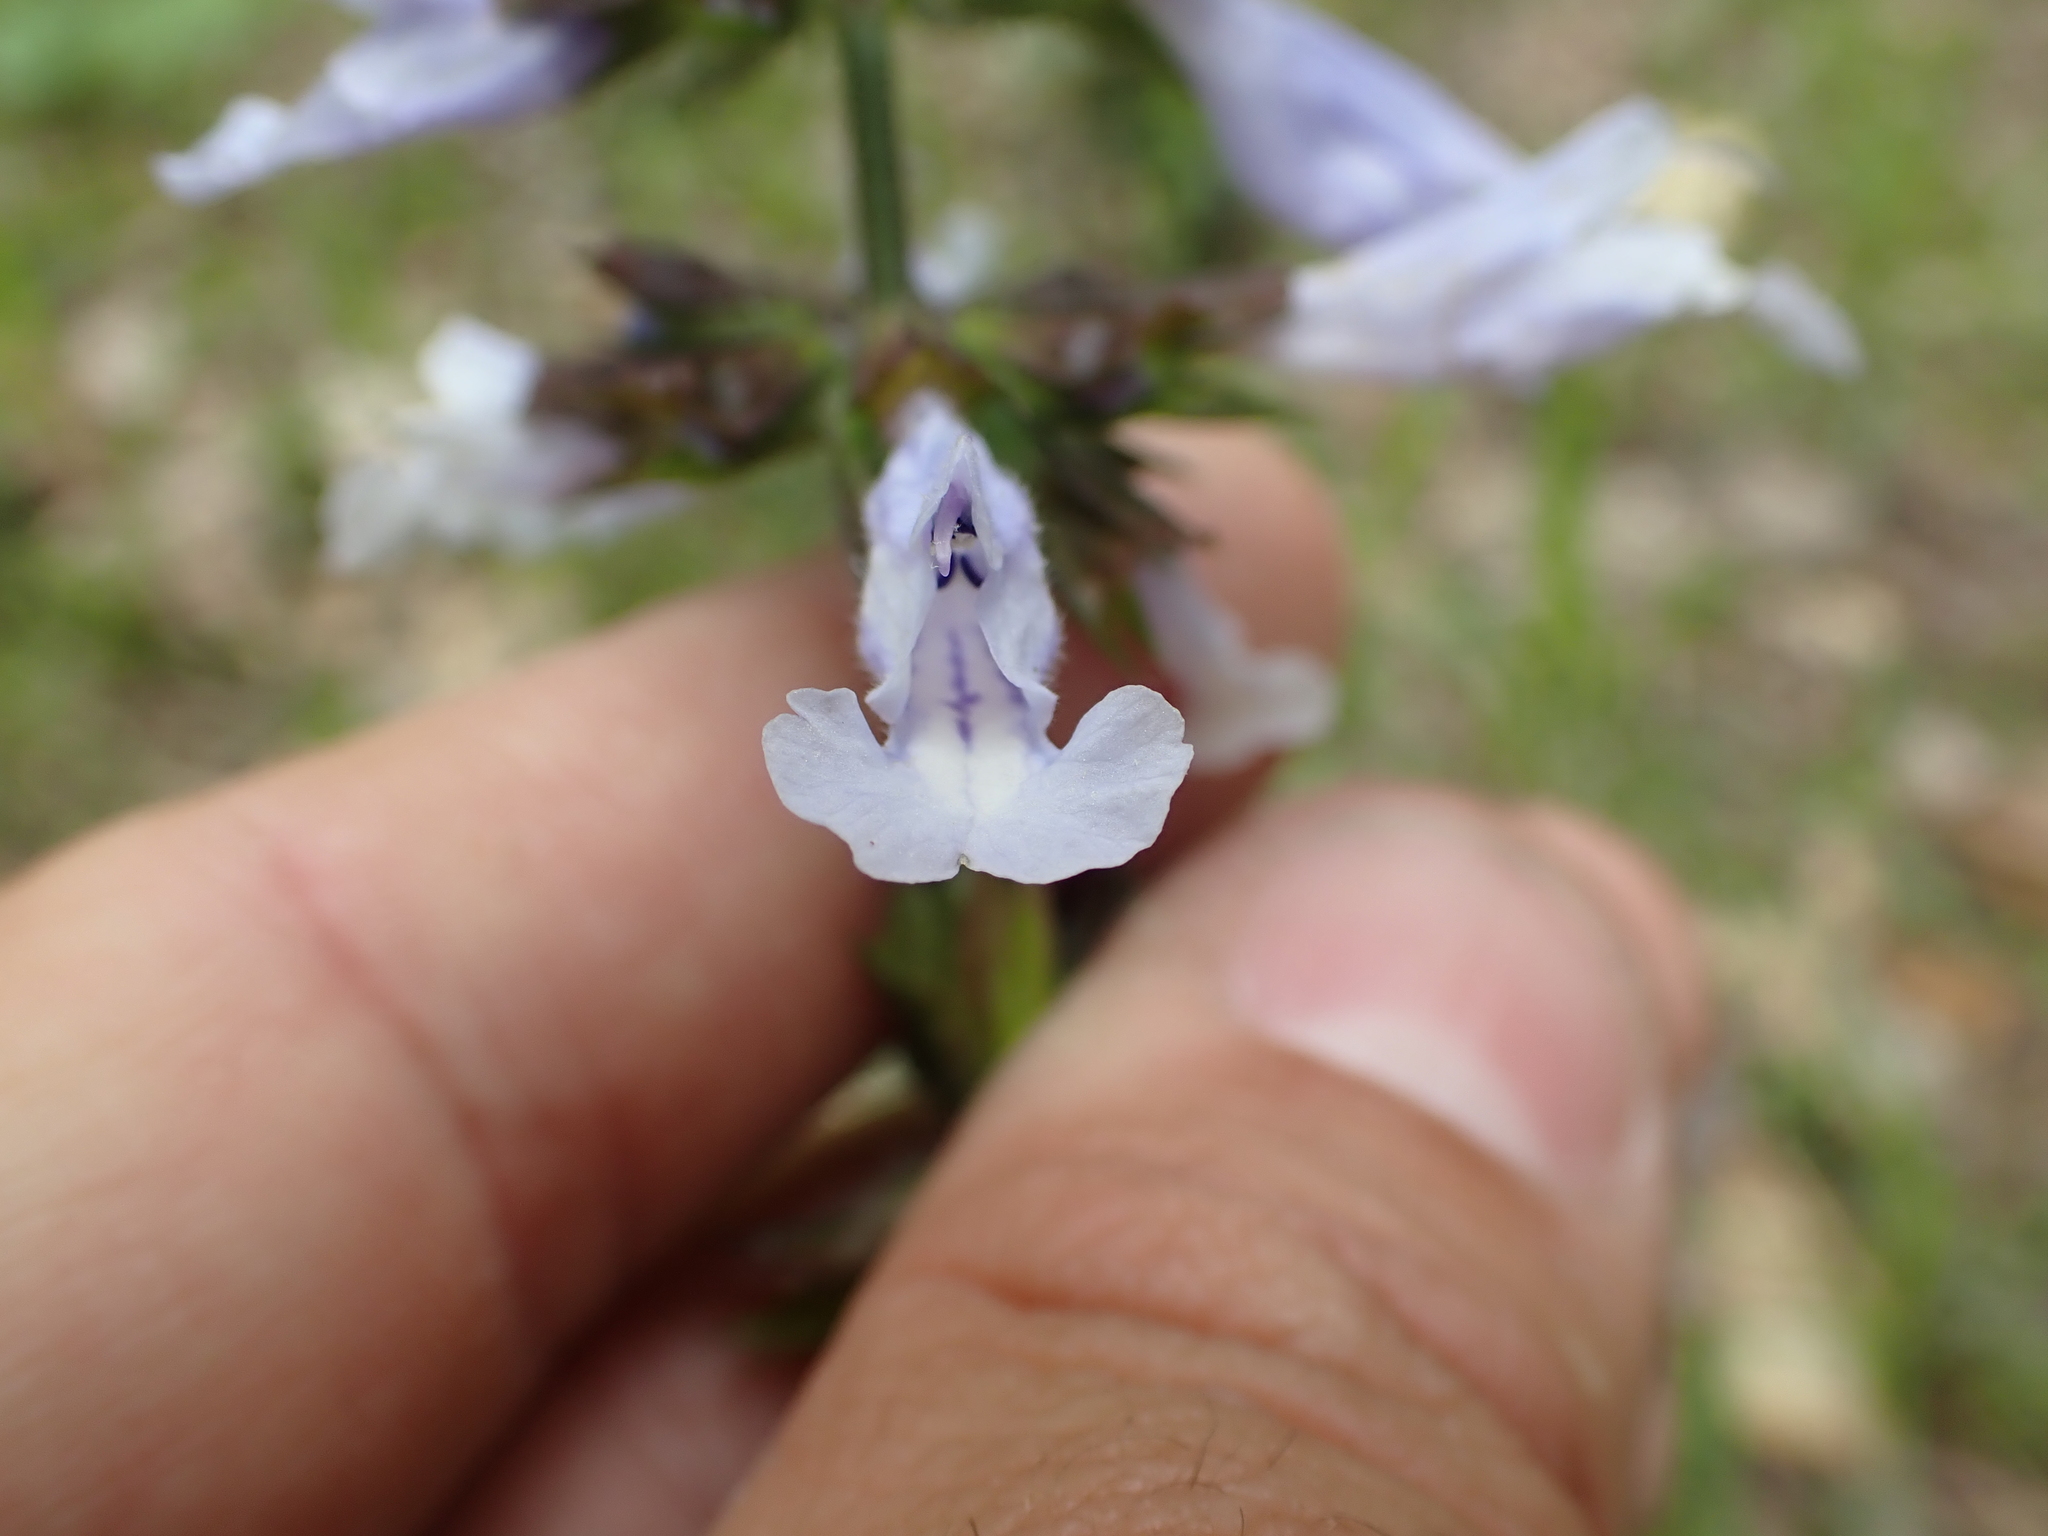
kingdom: Plantae
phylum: Tracheophyta
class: Magnoliopsida
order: Lamiales
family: Lamiaceae
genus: Salvia
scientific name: Salvia lyrata
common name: Cancerweed
